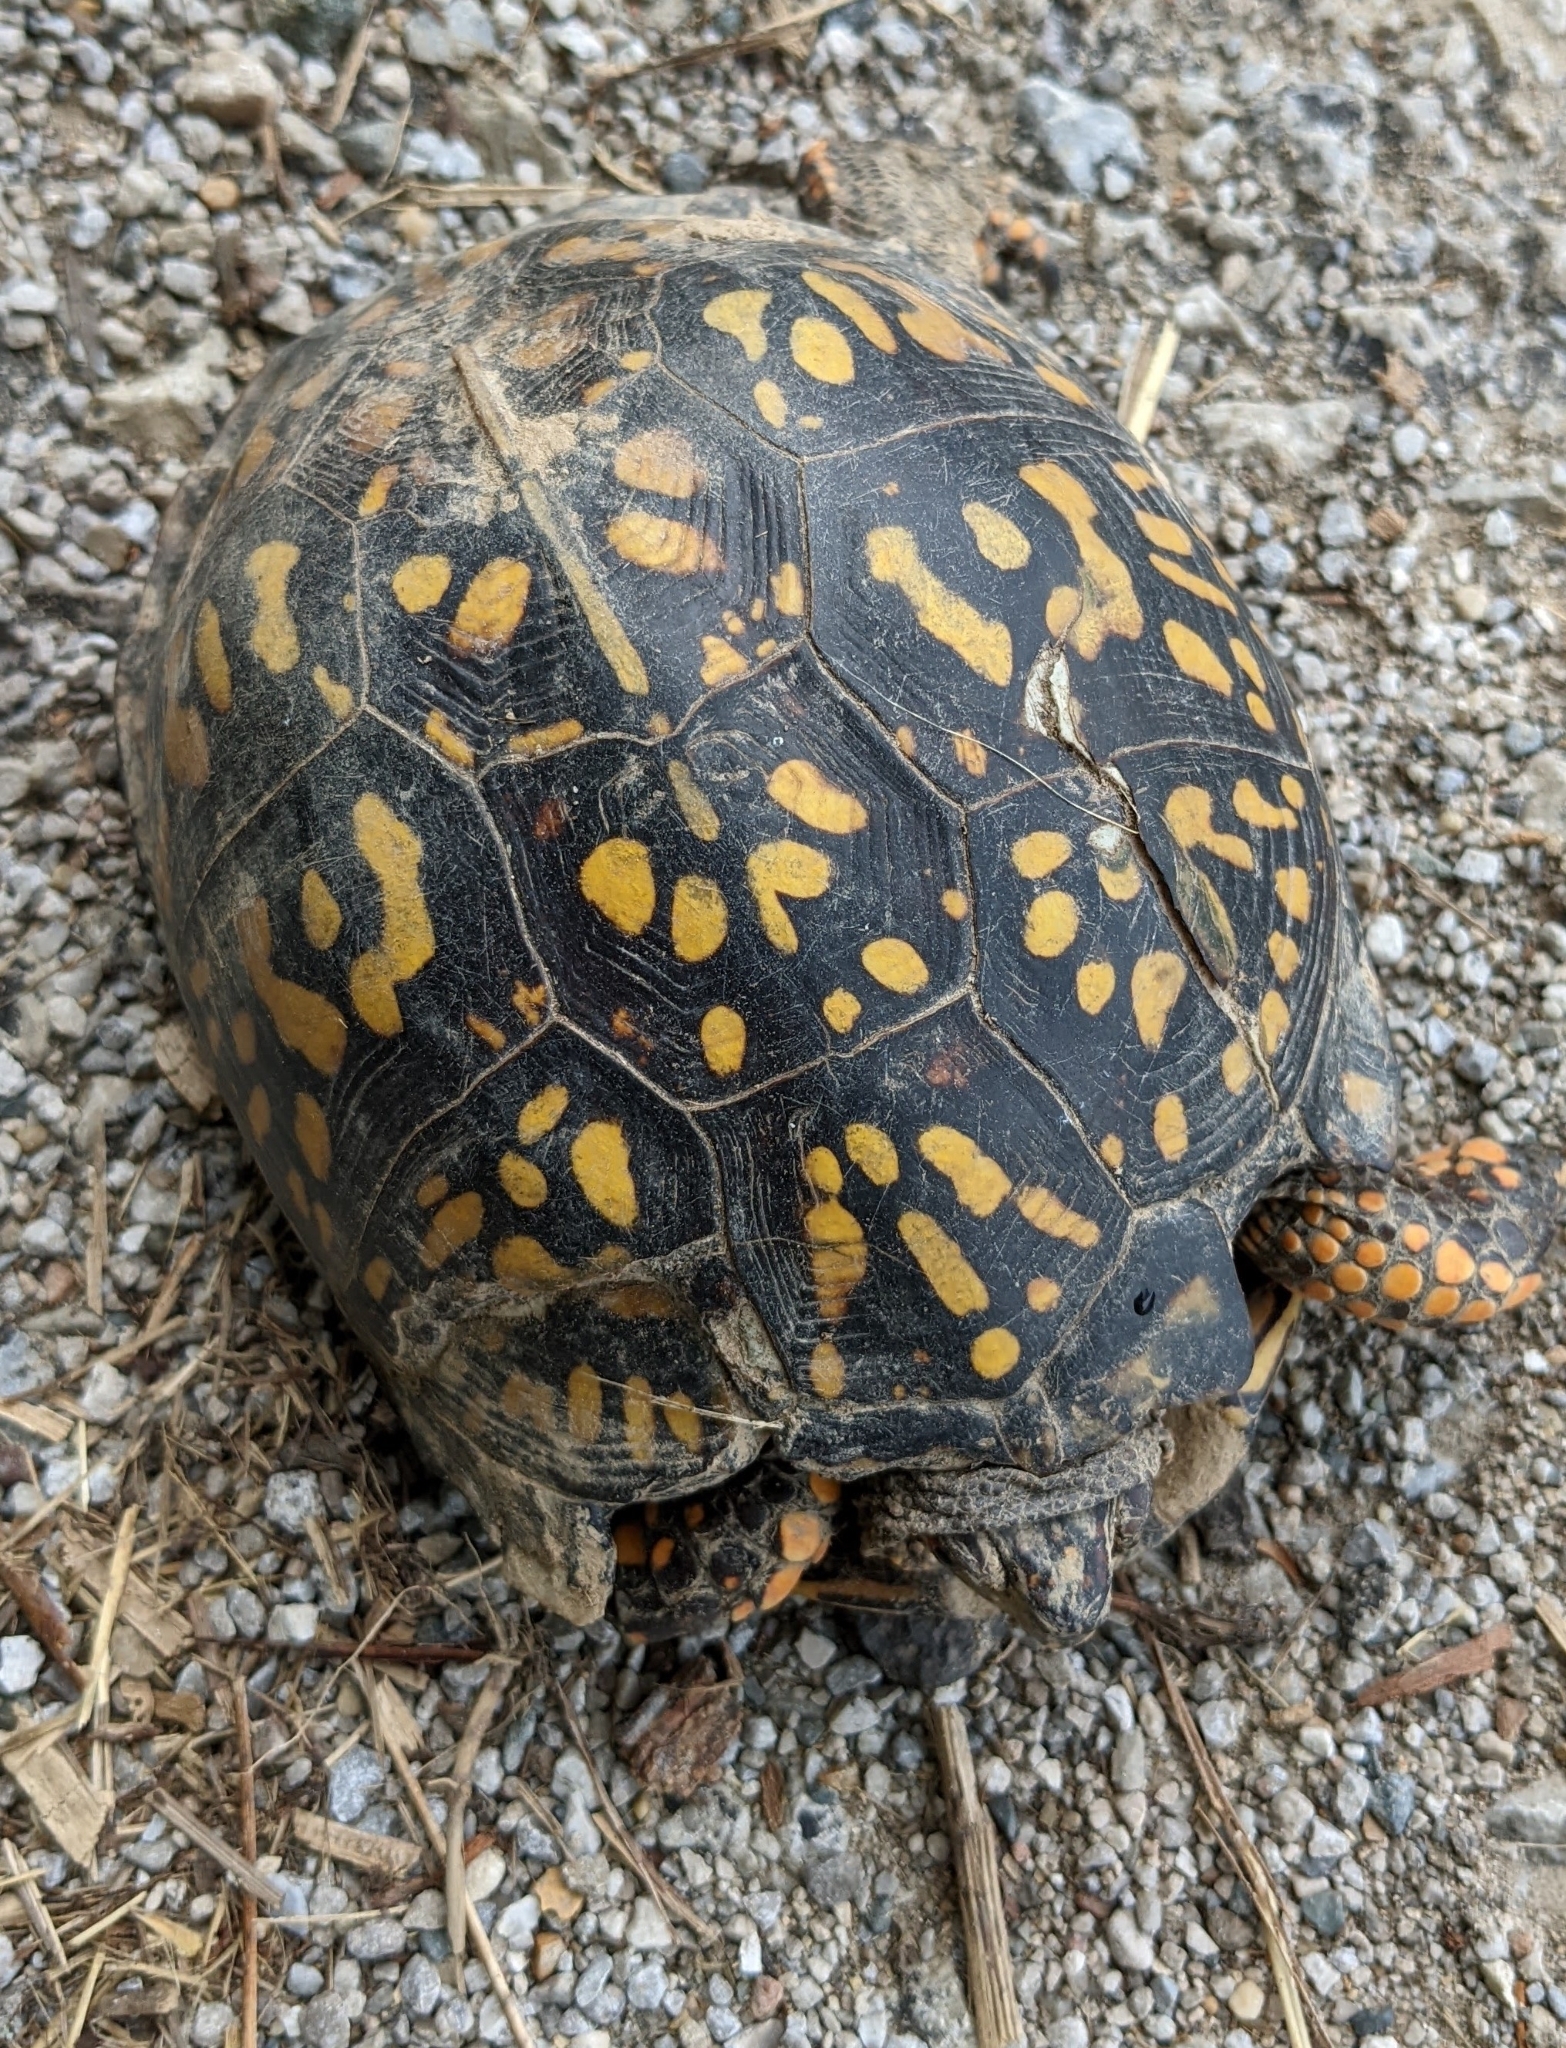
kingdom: Animalia
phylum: Chordata
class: Testudines
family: Emydidae
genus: Terrapene
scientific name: Terrapene carolina
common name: Common box turtle
